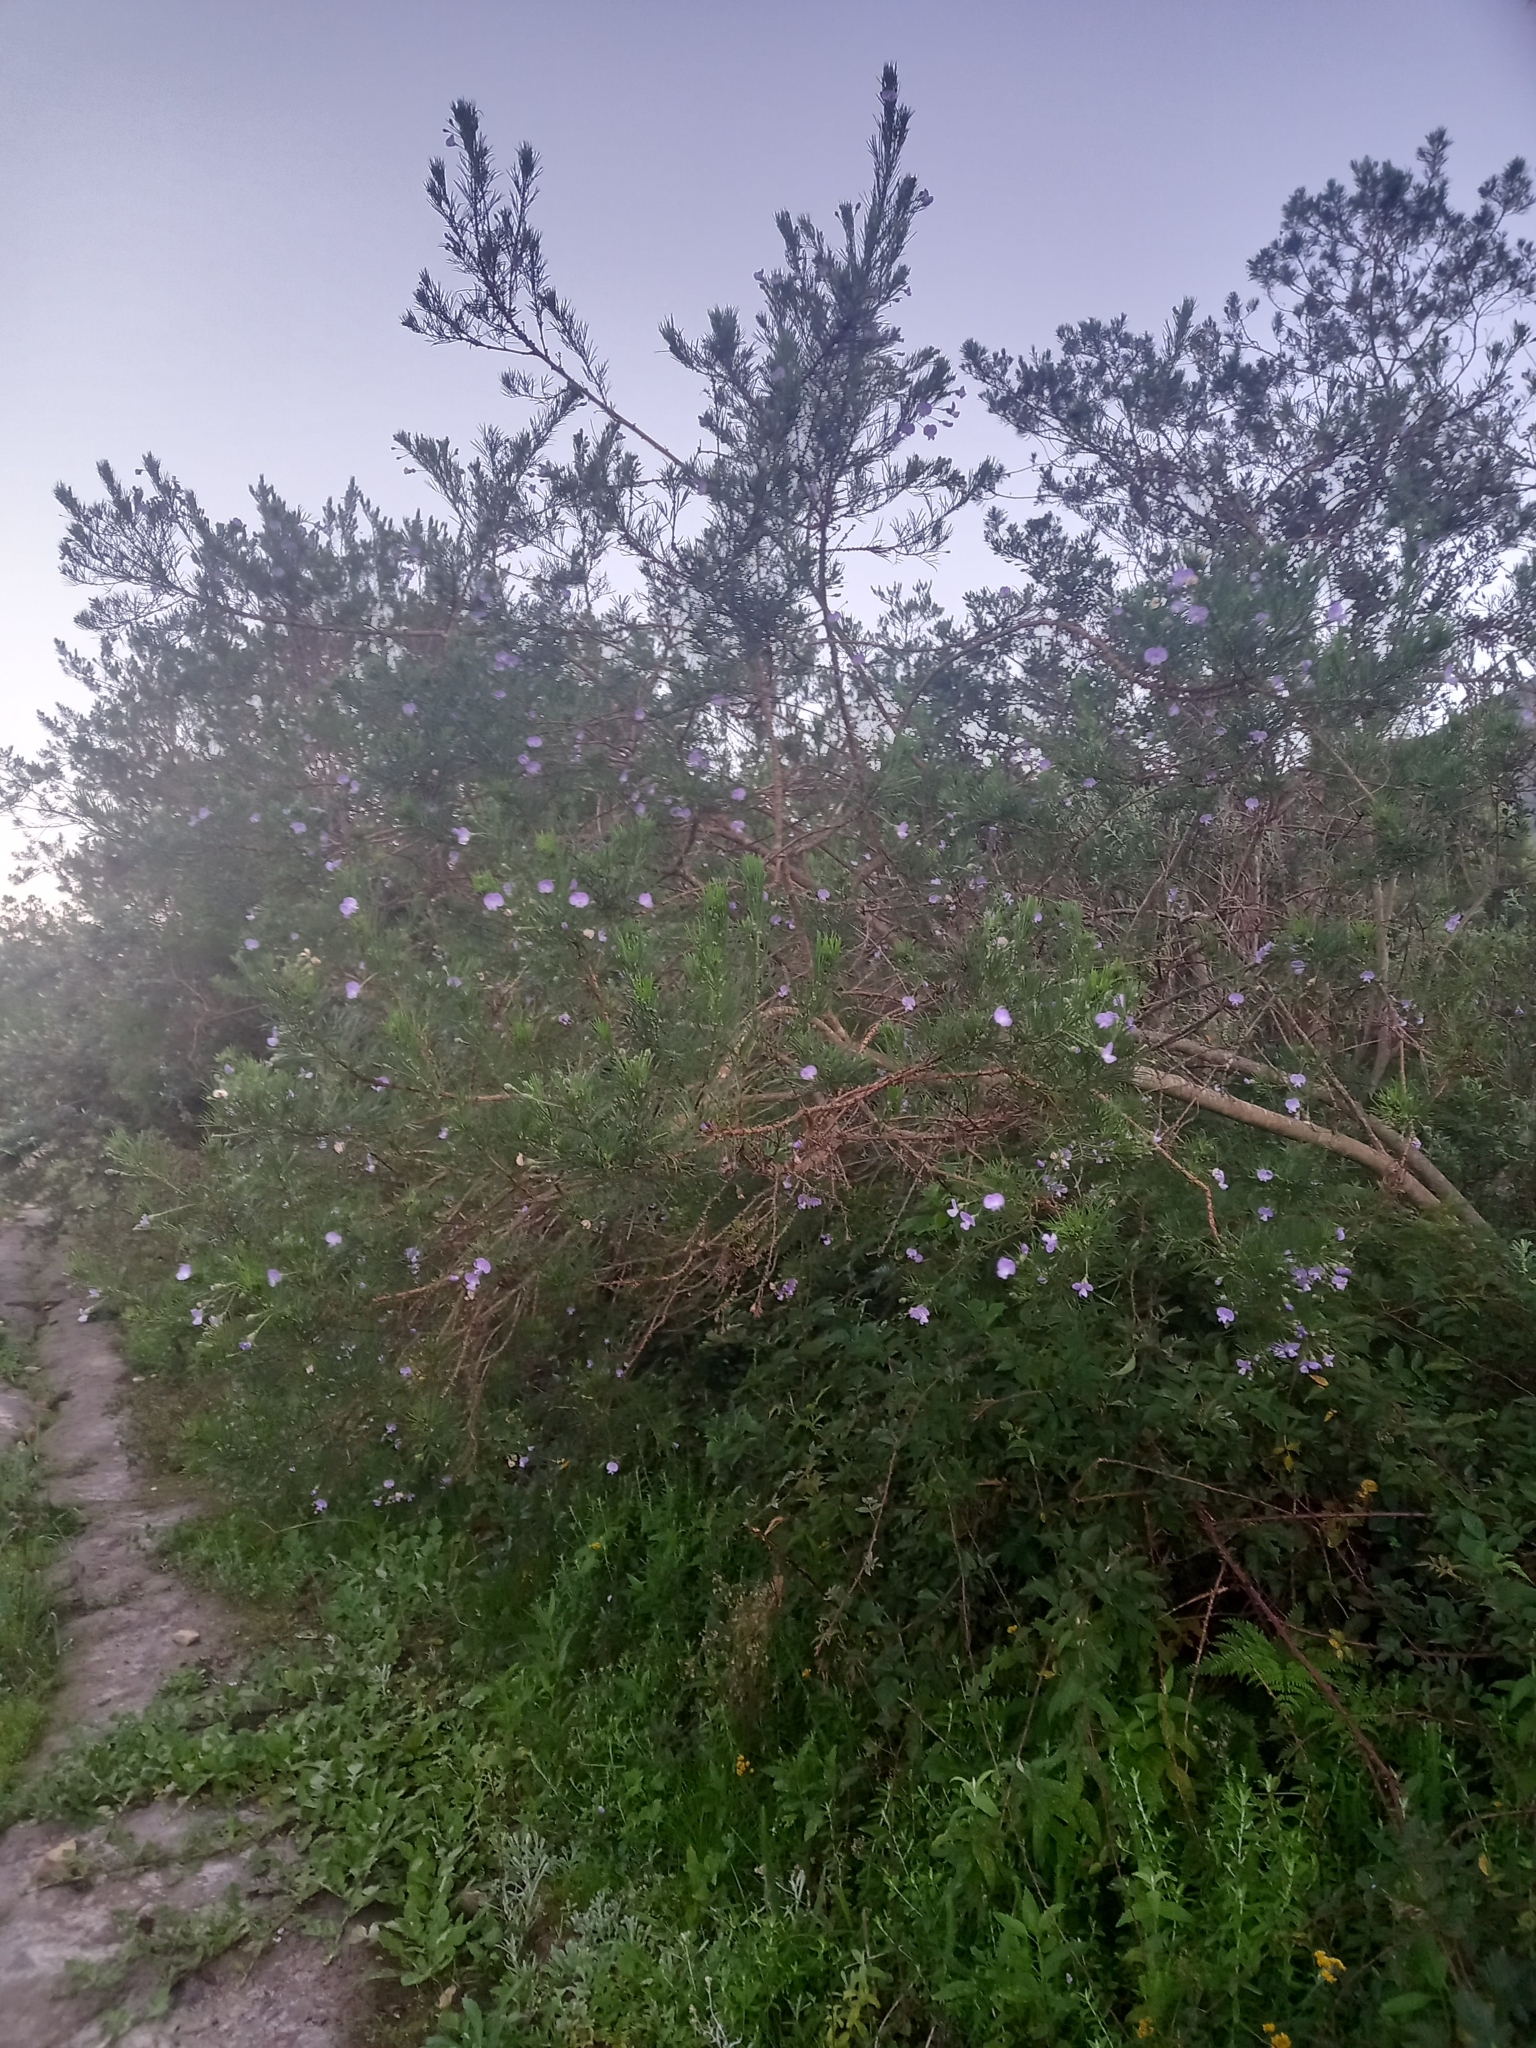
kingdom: Plantae
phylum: Tracheophyta
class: Magnoliopsida
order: Fabales
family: Fabaceae
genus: Psoralea
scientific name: Psoralea arborea
